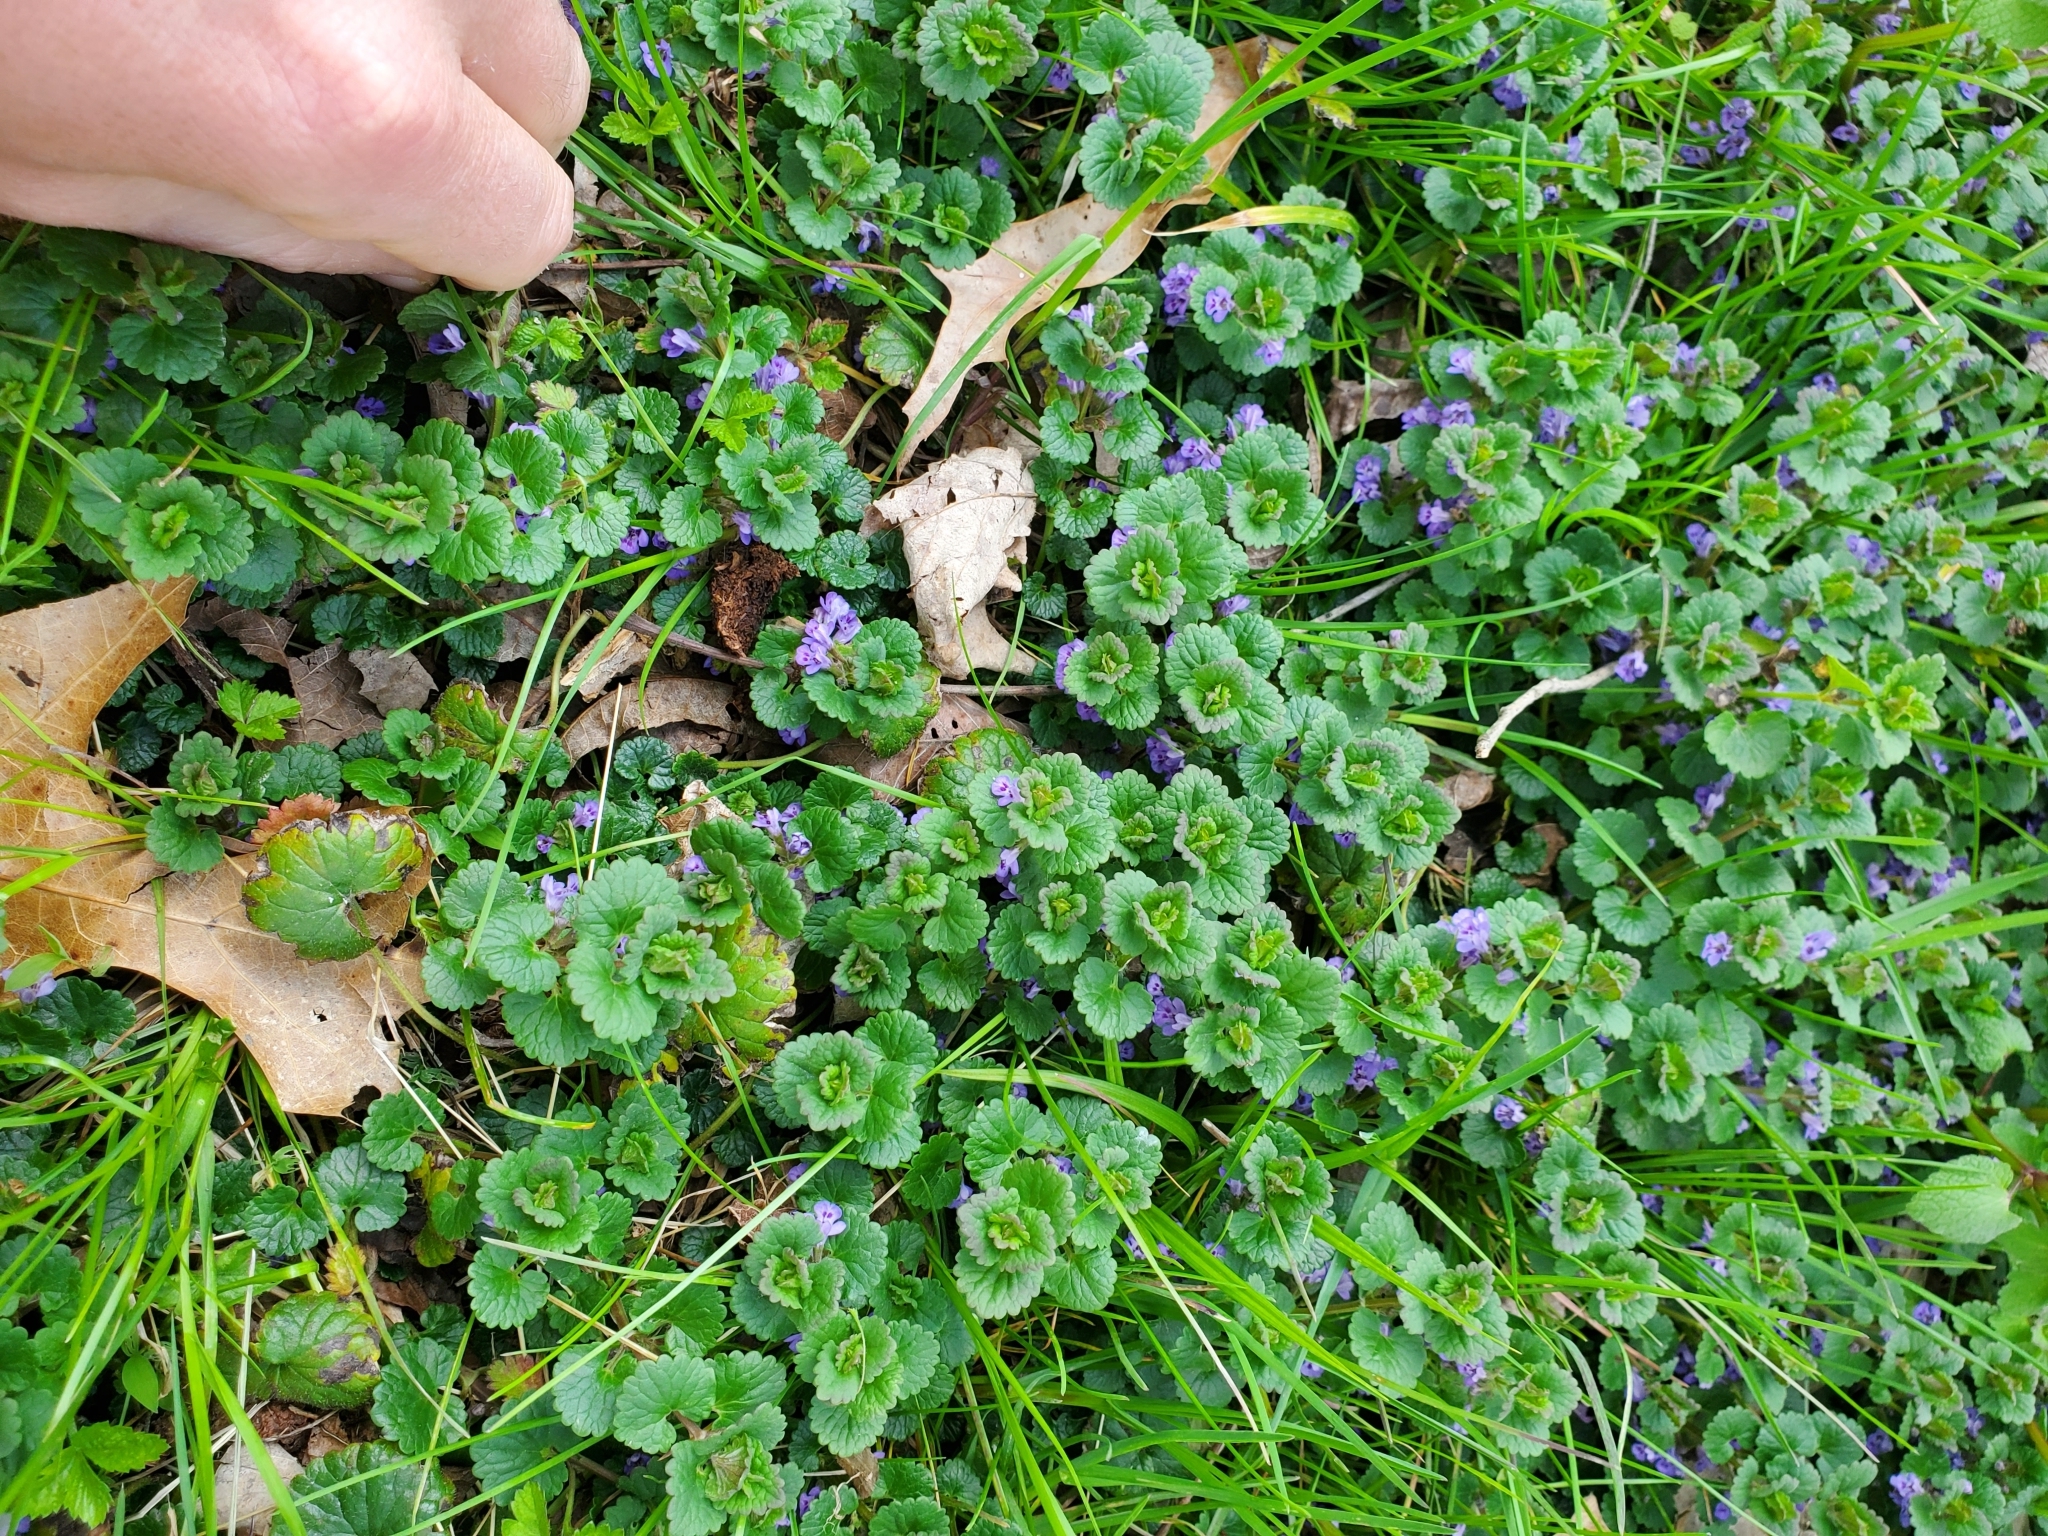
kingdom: Plantae
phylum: Tracheophyta
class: Magnoliopsida
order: Lamiales
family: Lamiaceae
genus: Glechoma
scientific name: Glechoma hederacea
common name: Ground ivy
